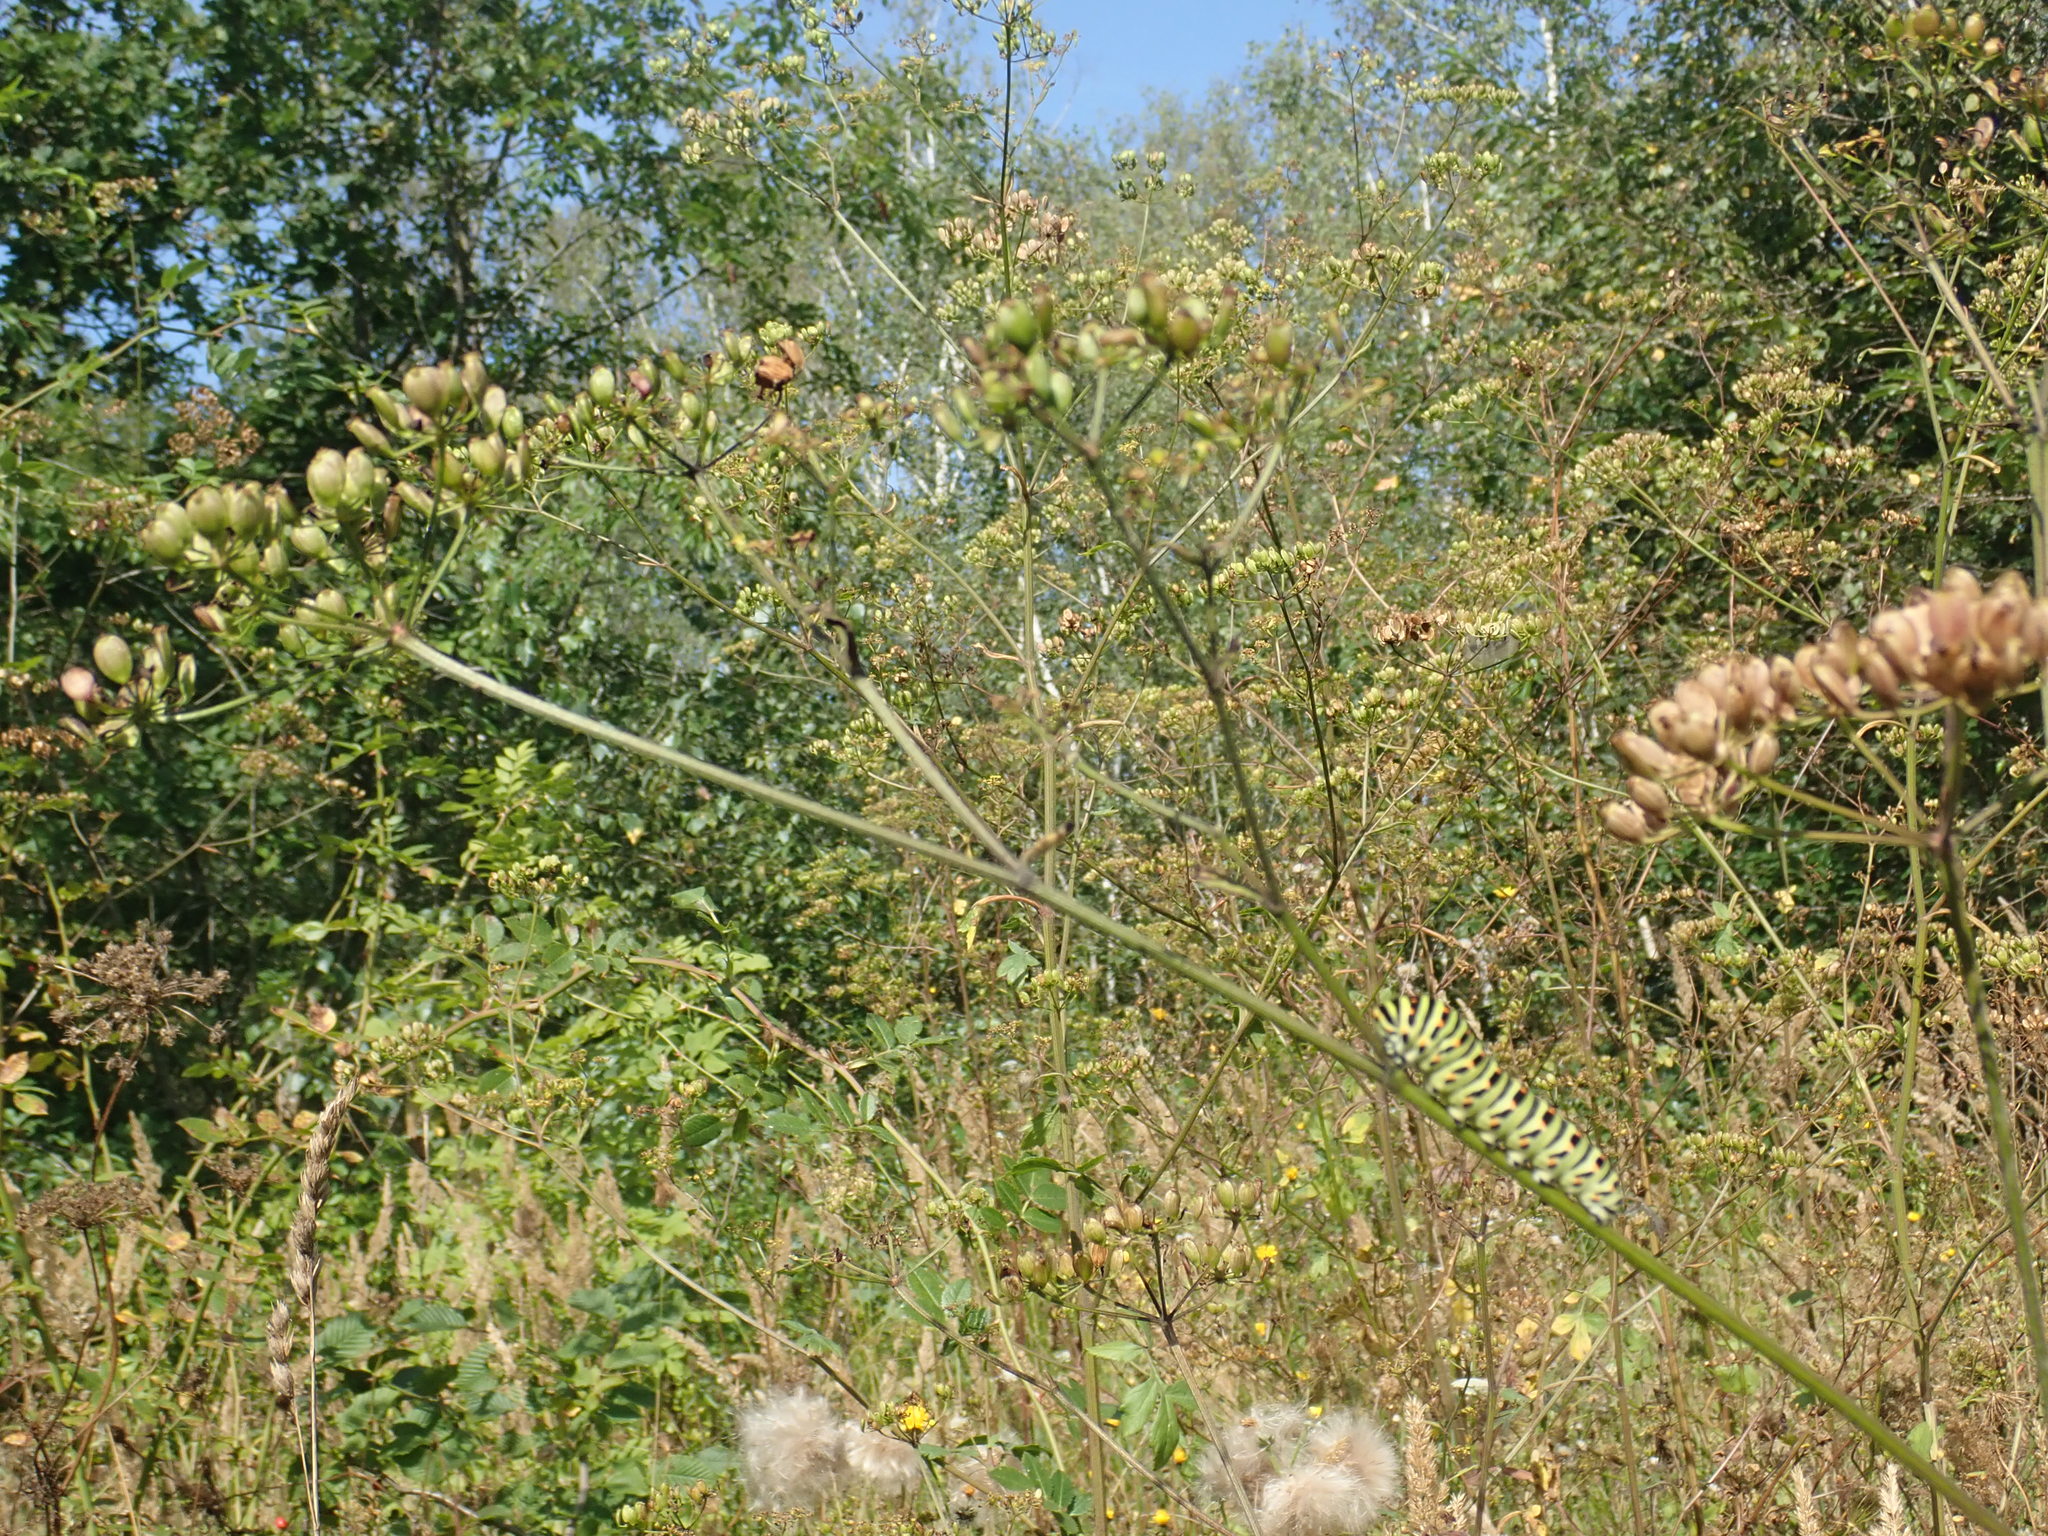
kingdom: Animalia
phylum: Arthropoda
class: Insecta
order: Lepidoptera
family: Papilionidae
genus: Papilio
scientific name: Papilio machaon
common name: Swallowtail
